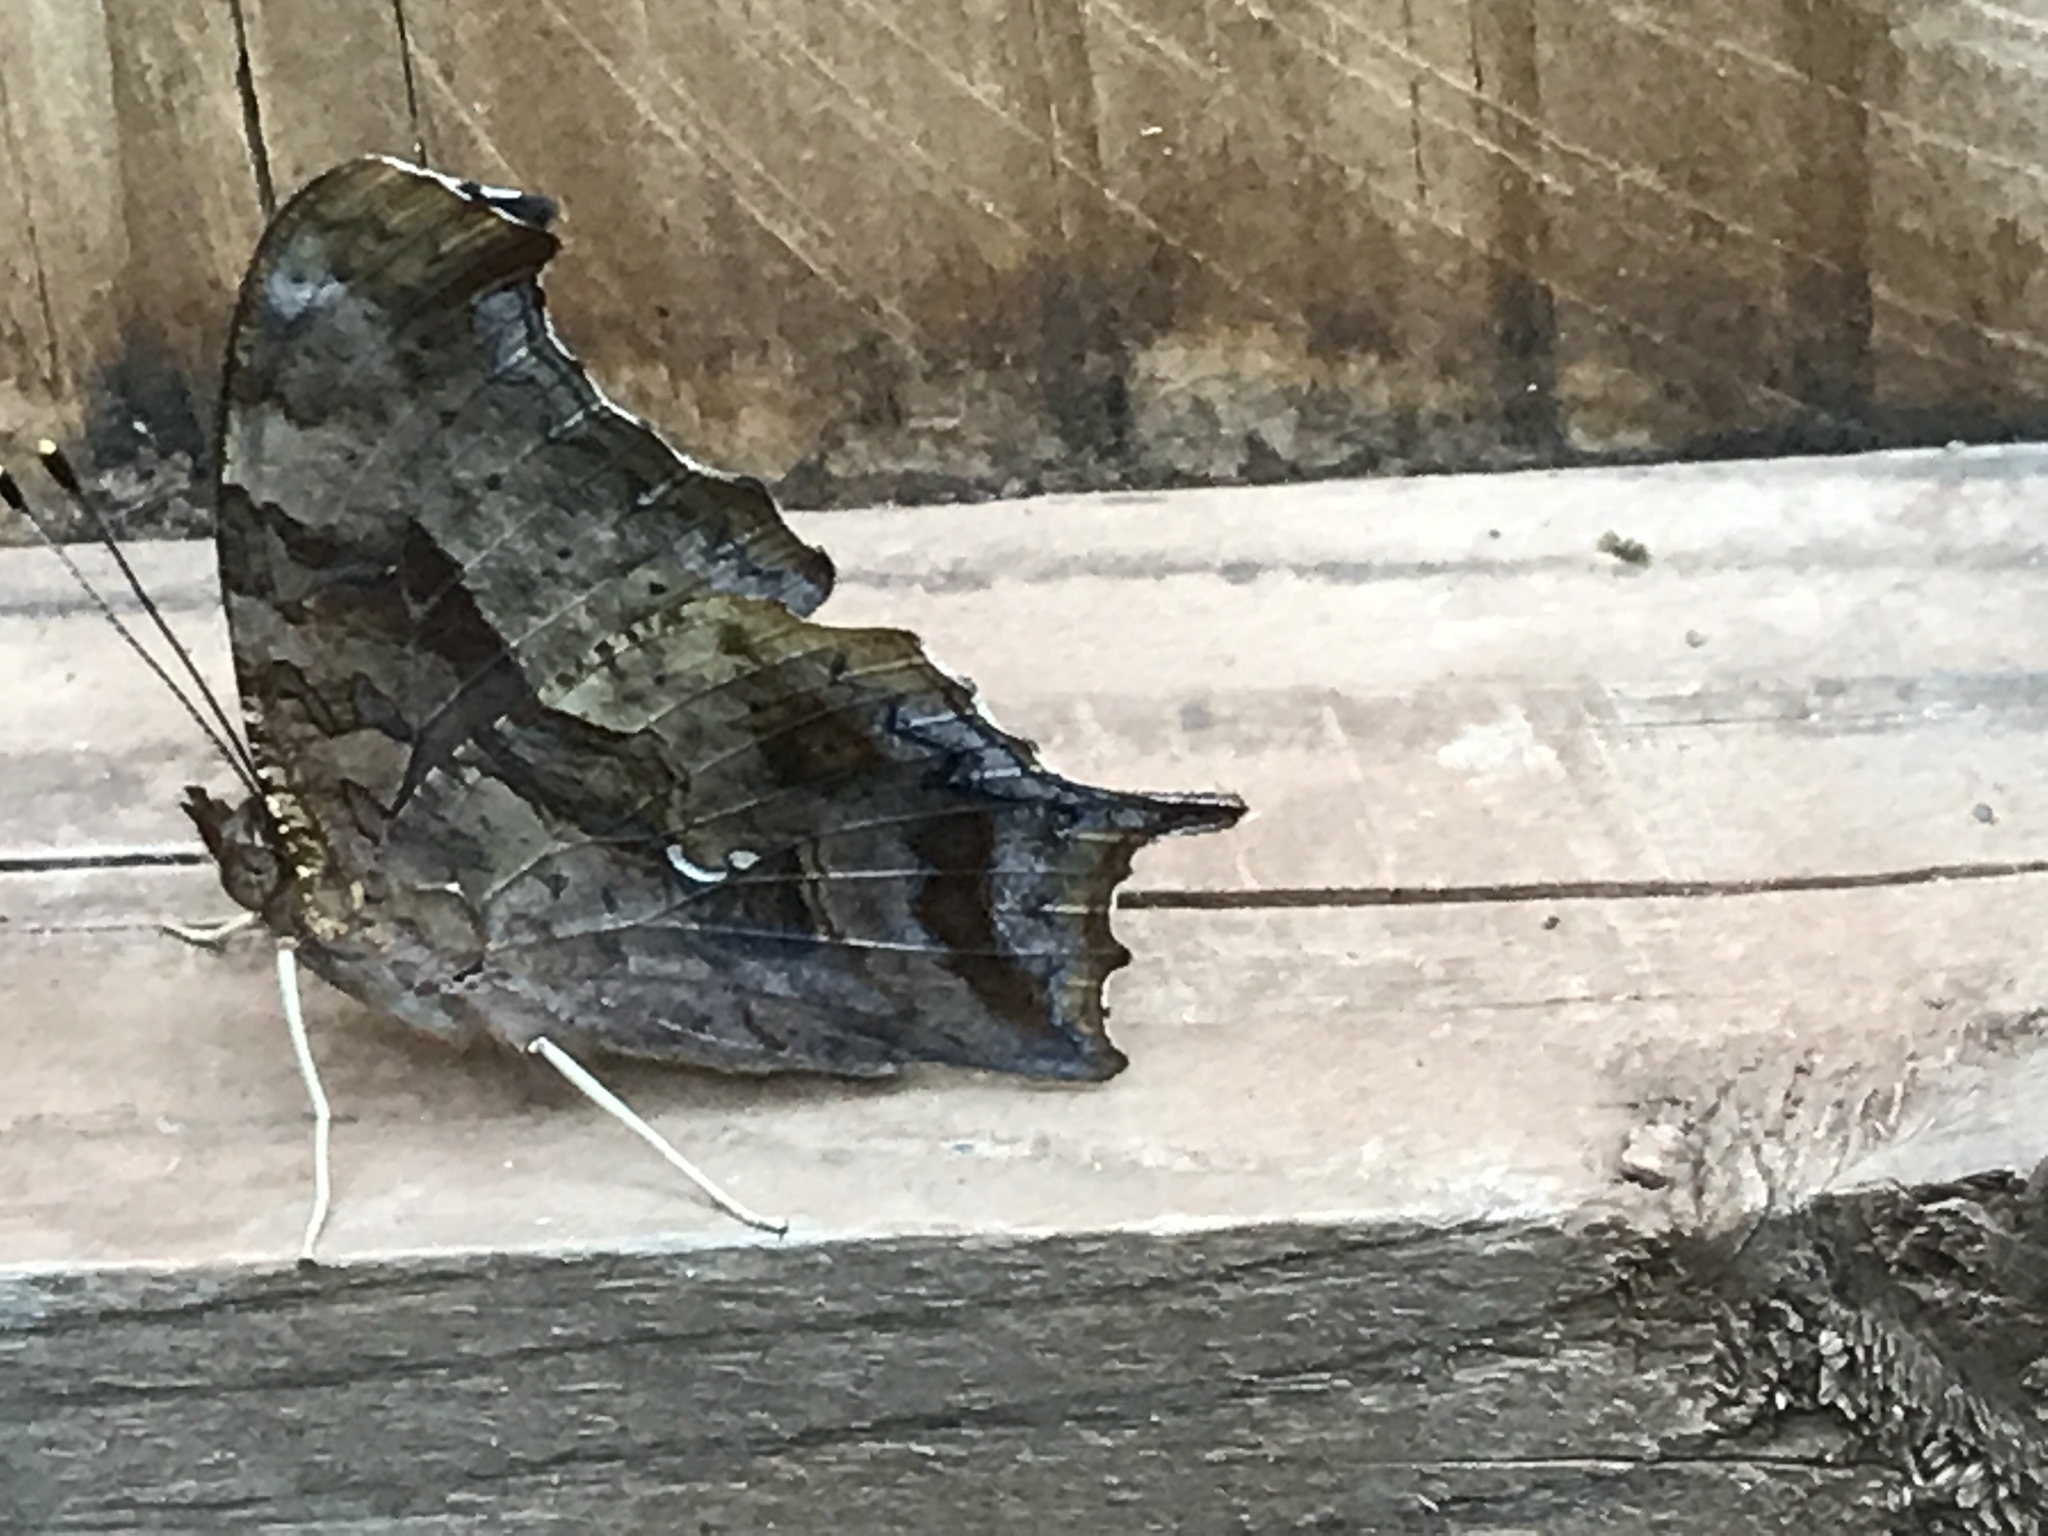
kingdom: Animalia
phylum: Arthropoda
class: Insecta
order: Lepidoptera
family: Nymphalidae
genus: Polygonia
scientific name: Polygonia interrogationis
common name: Question mark
